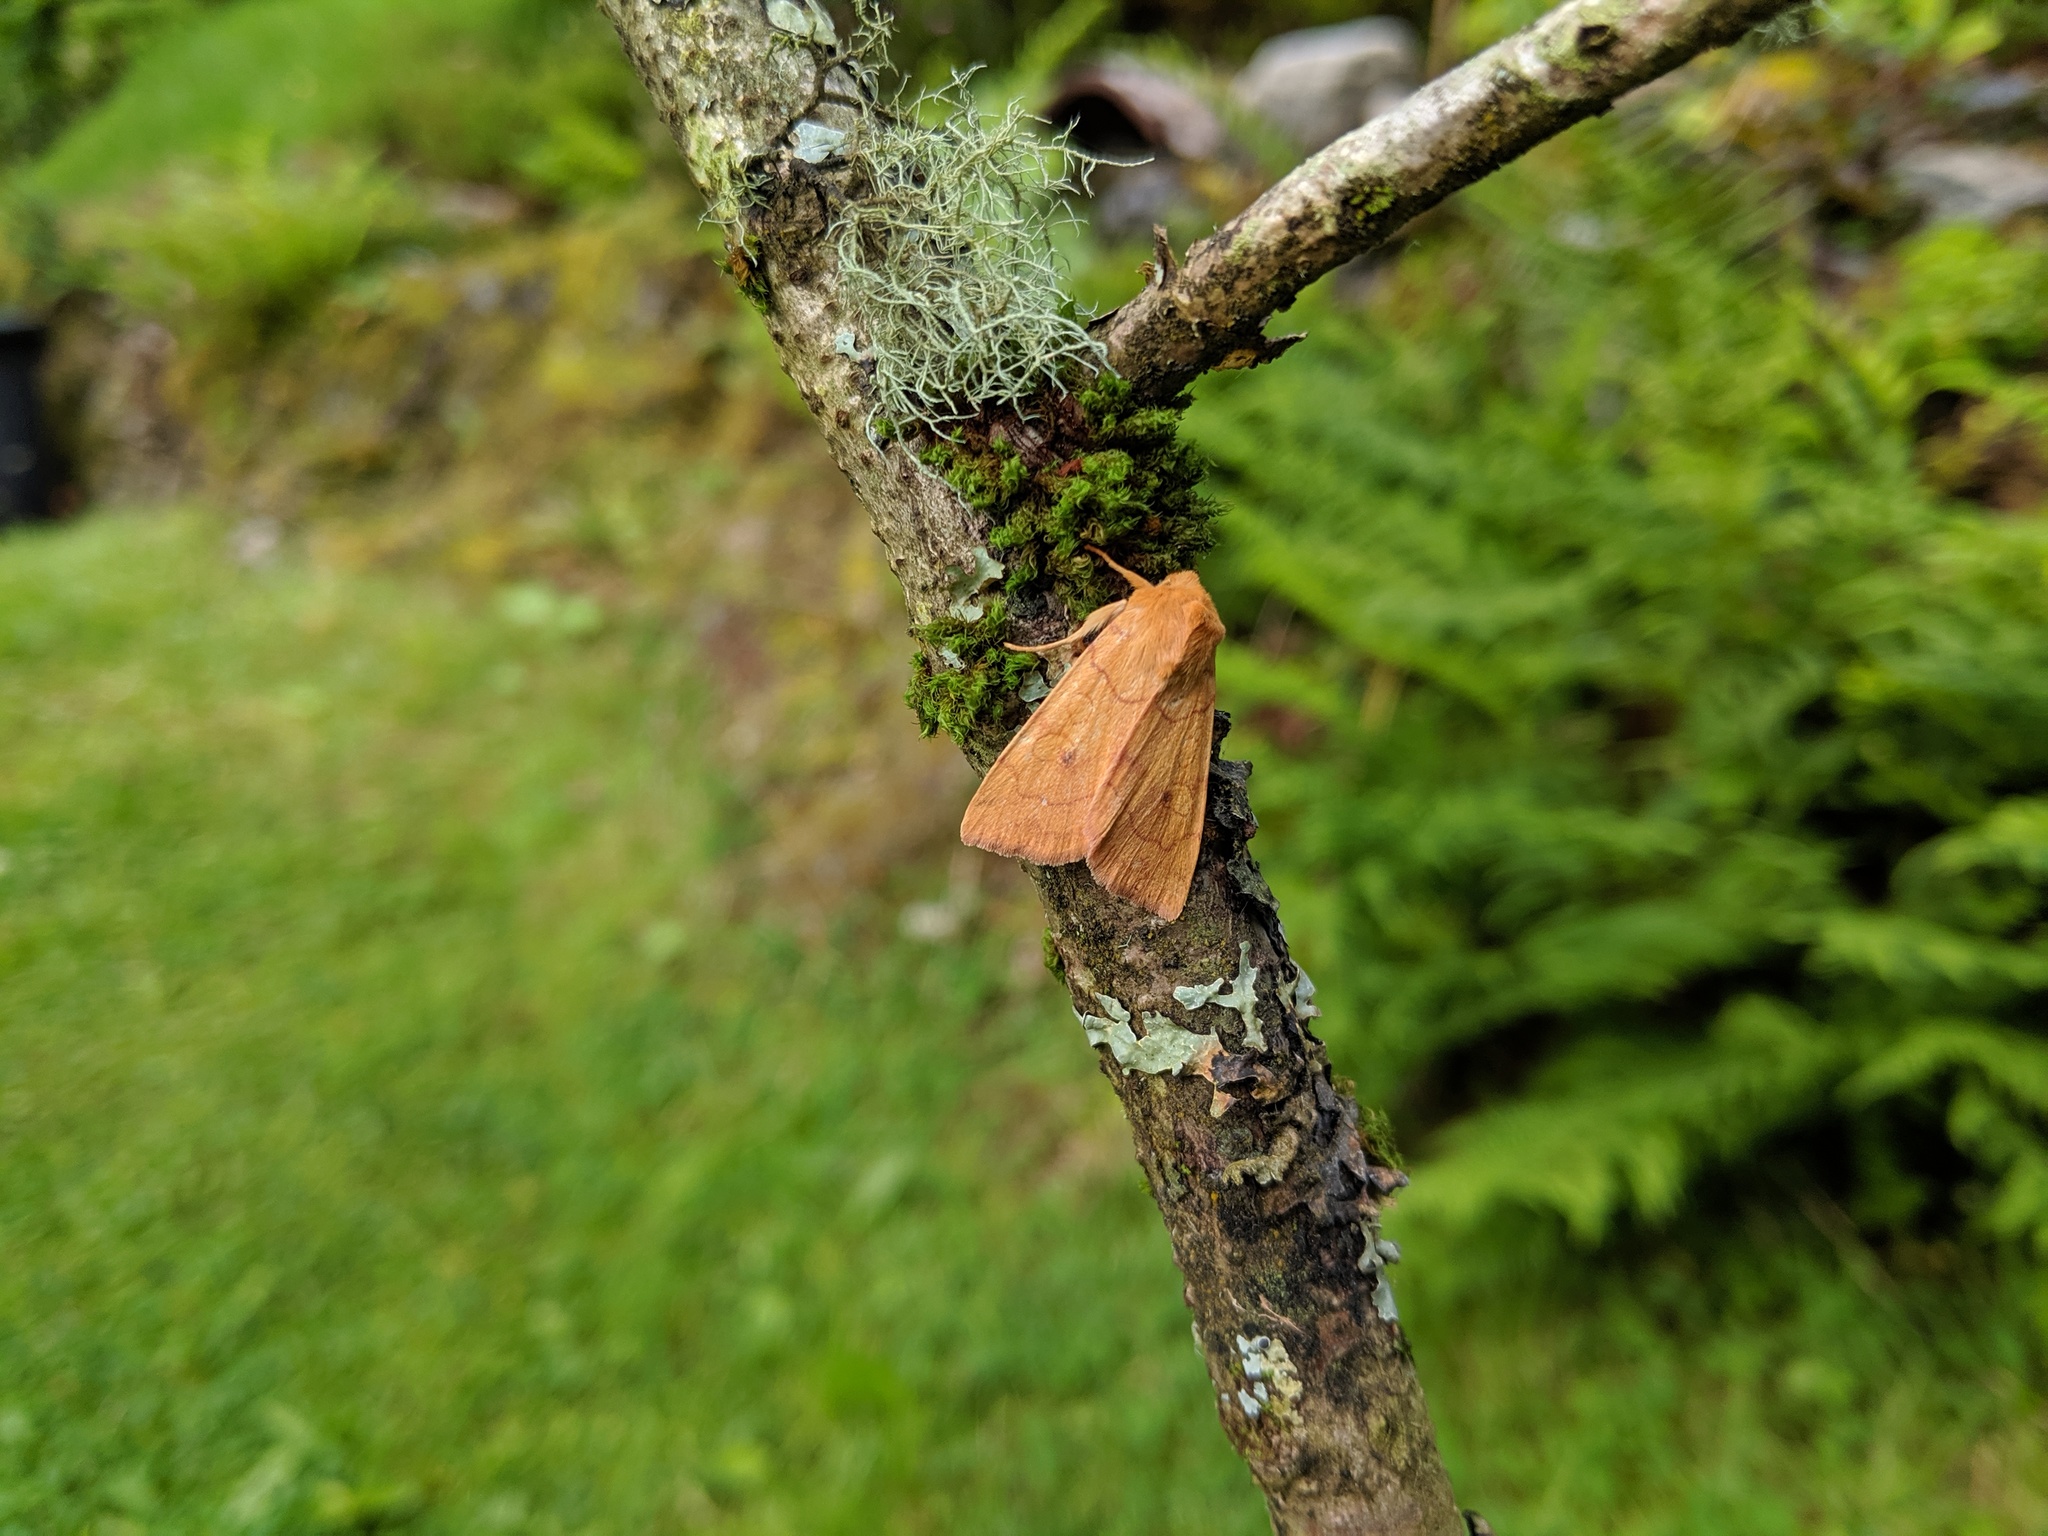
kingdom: Animalia
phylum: Arthropoda
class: Insecta
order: Lepidoptera
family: Noctuidae
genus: Enargia
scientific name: Enargia paleacea
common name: Angle-striped sallow
